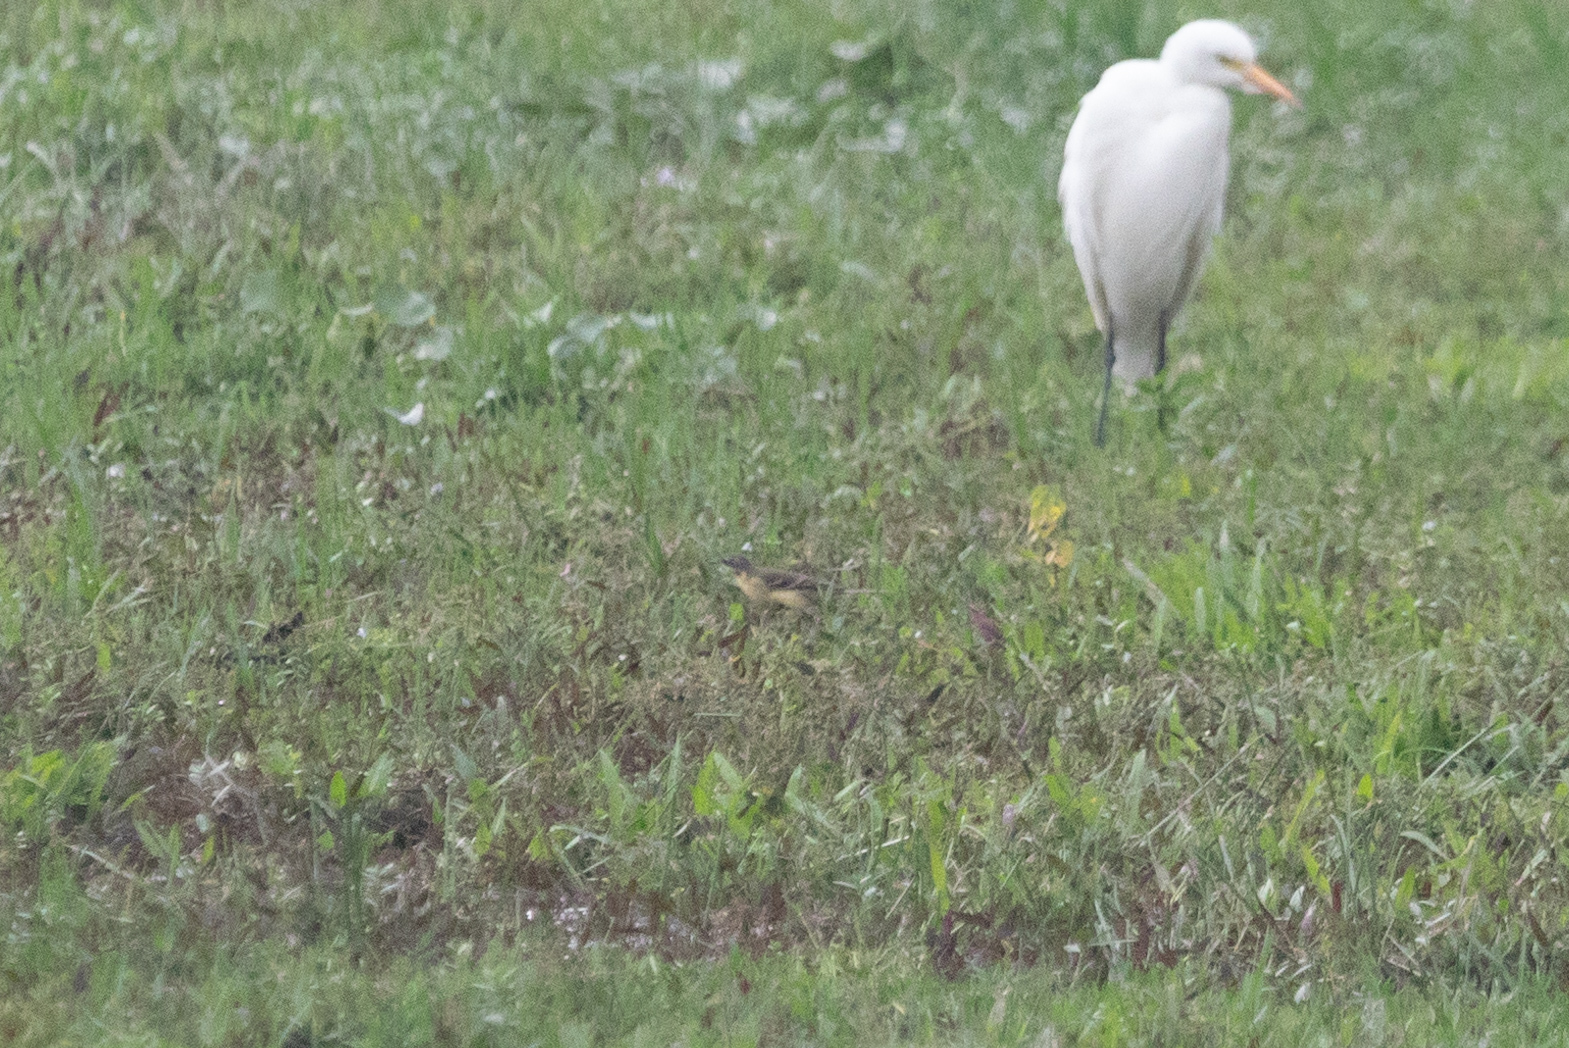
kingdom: Animalia
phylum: Chordata
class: Aves
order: Passeriformes
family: Motacillidae
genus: Motacilla
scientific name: Motacilla tschutschensis
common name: Eastern yellow wagtail
